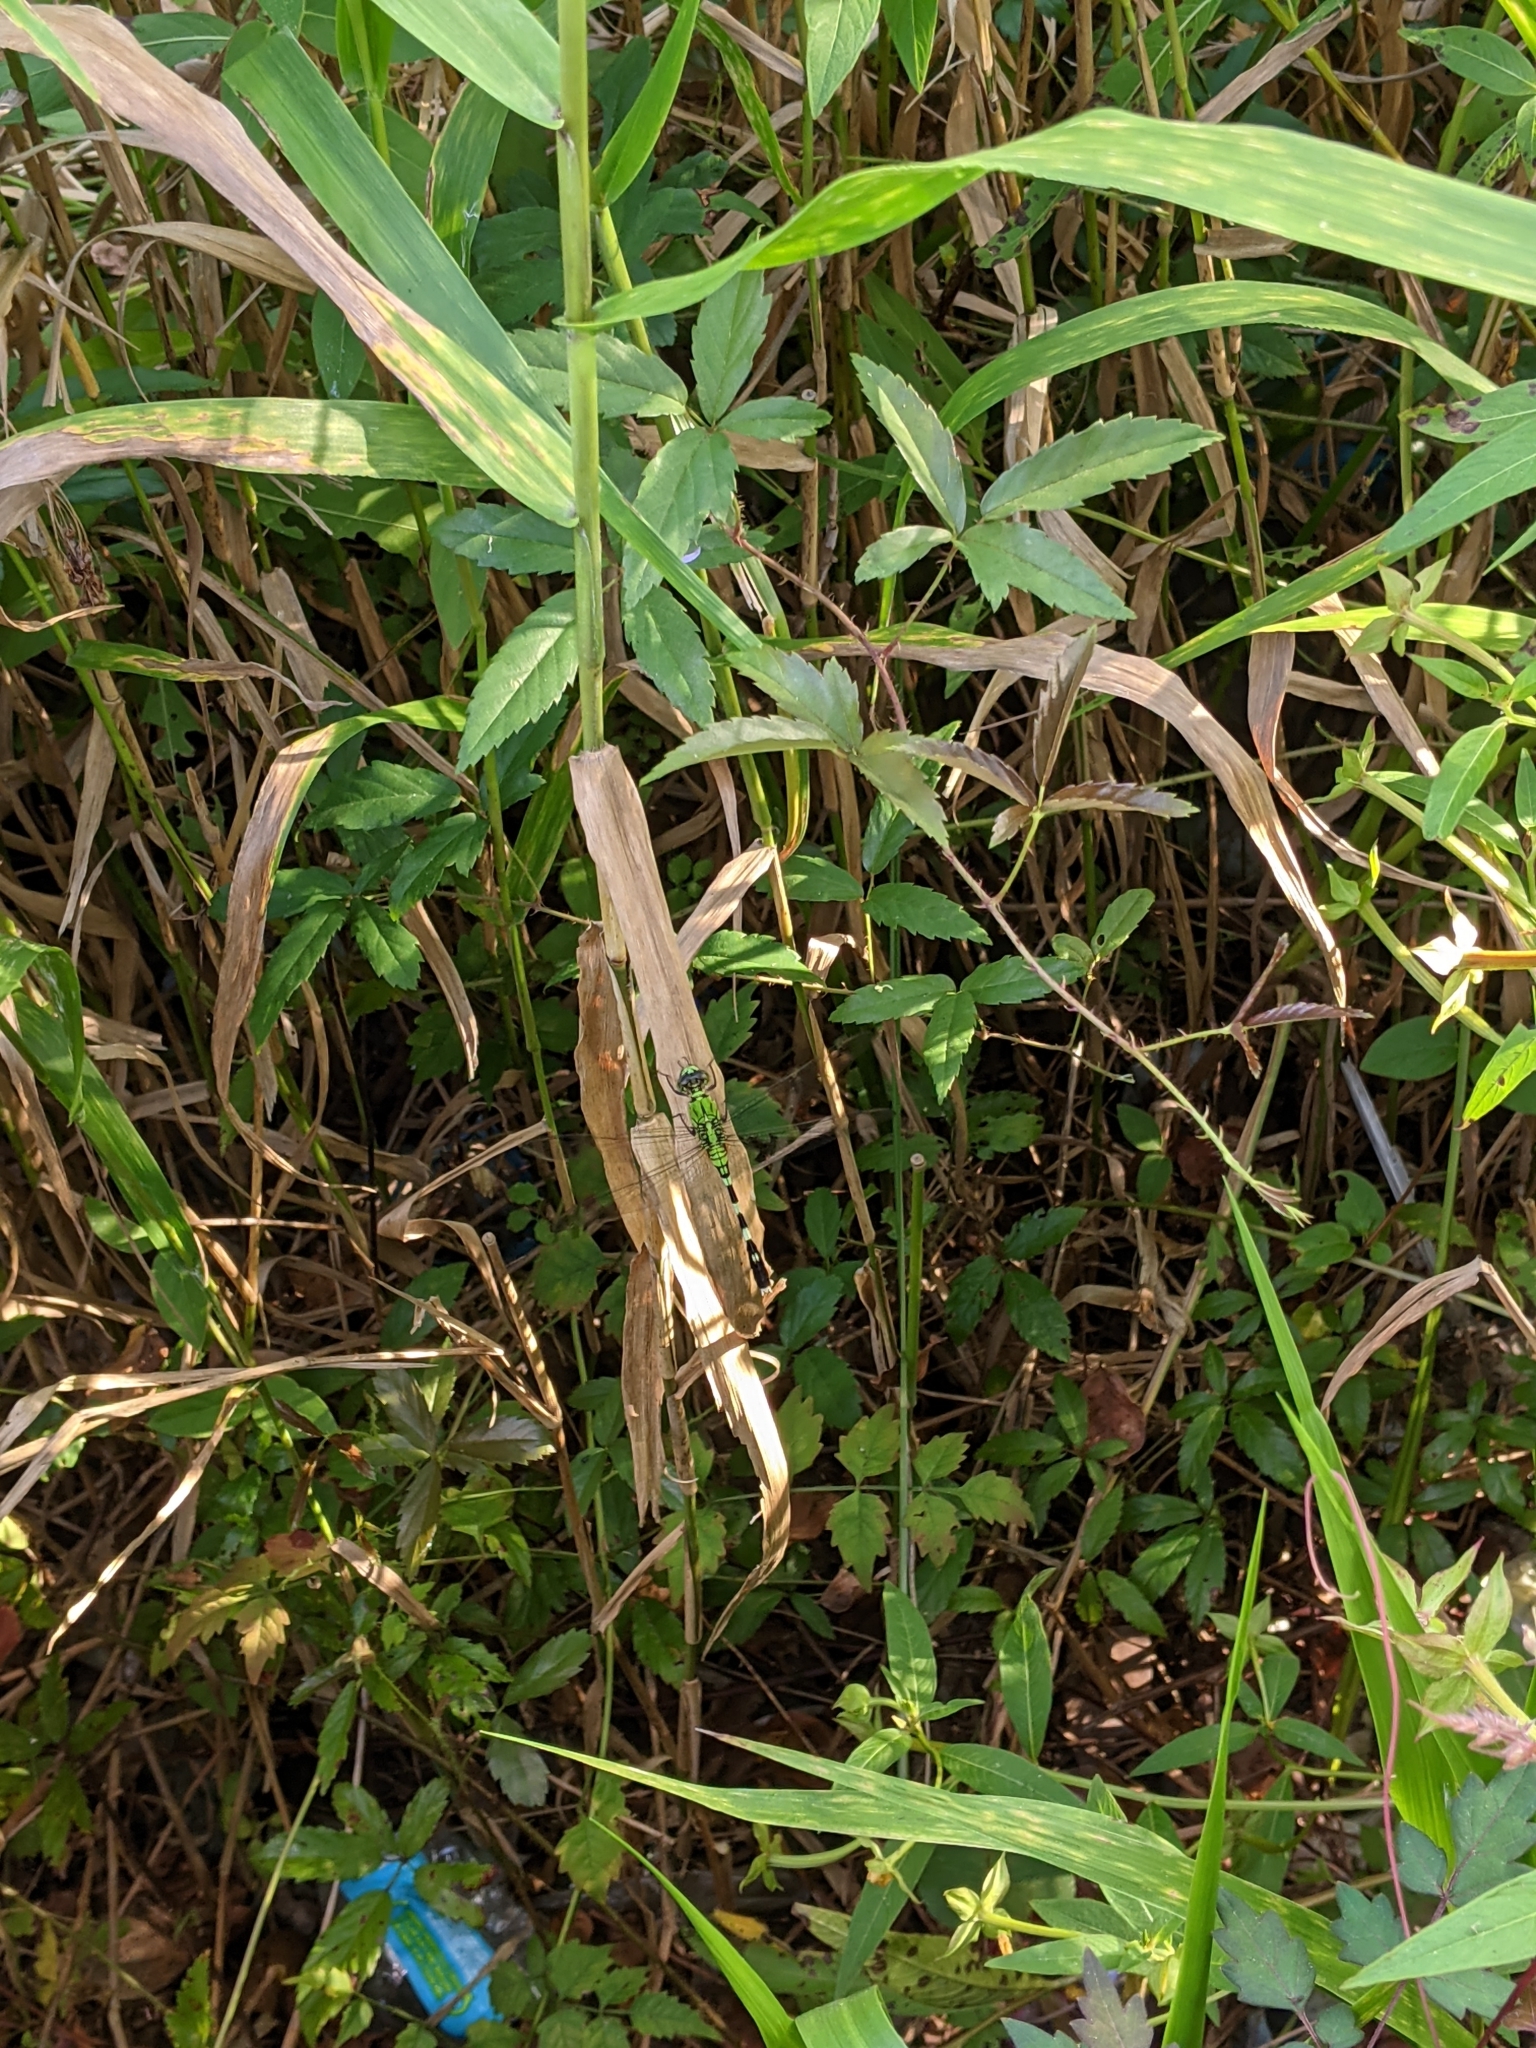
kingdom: Animalia
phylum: Arthropoda
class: Insecta
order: Odonata
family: Libellulidae
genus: Erythemis
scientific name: Erythemis simplicicollis
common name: Eastern pondhawk
